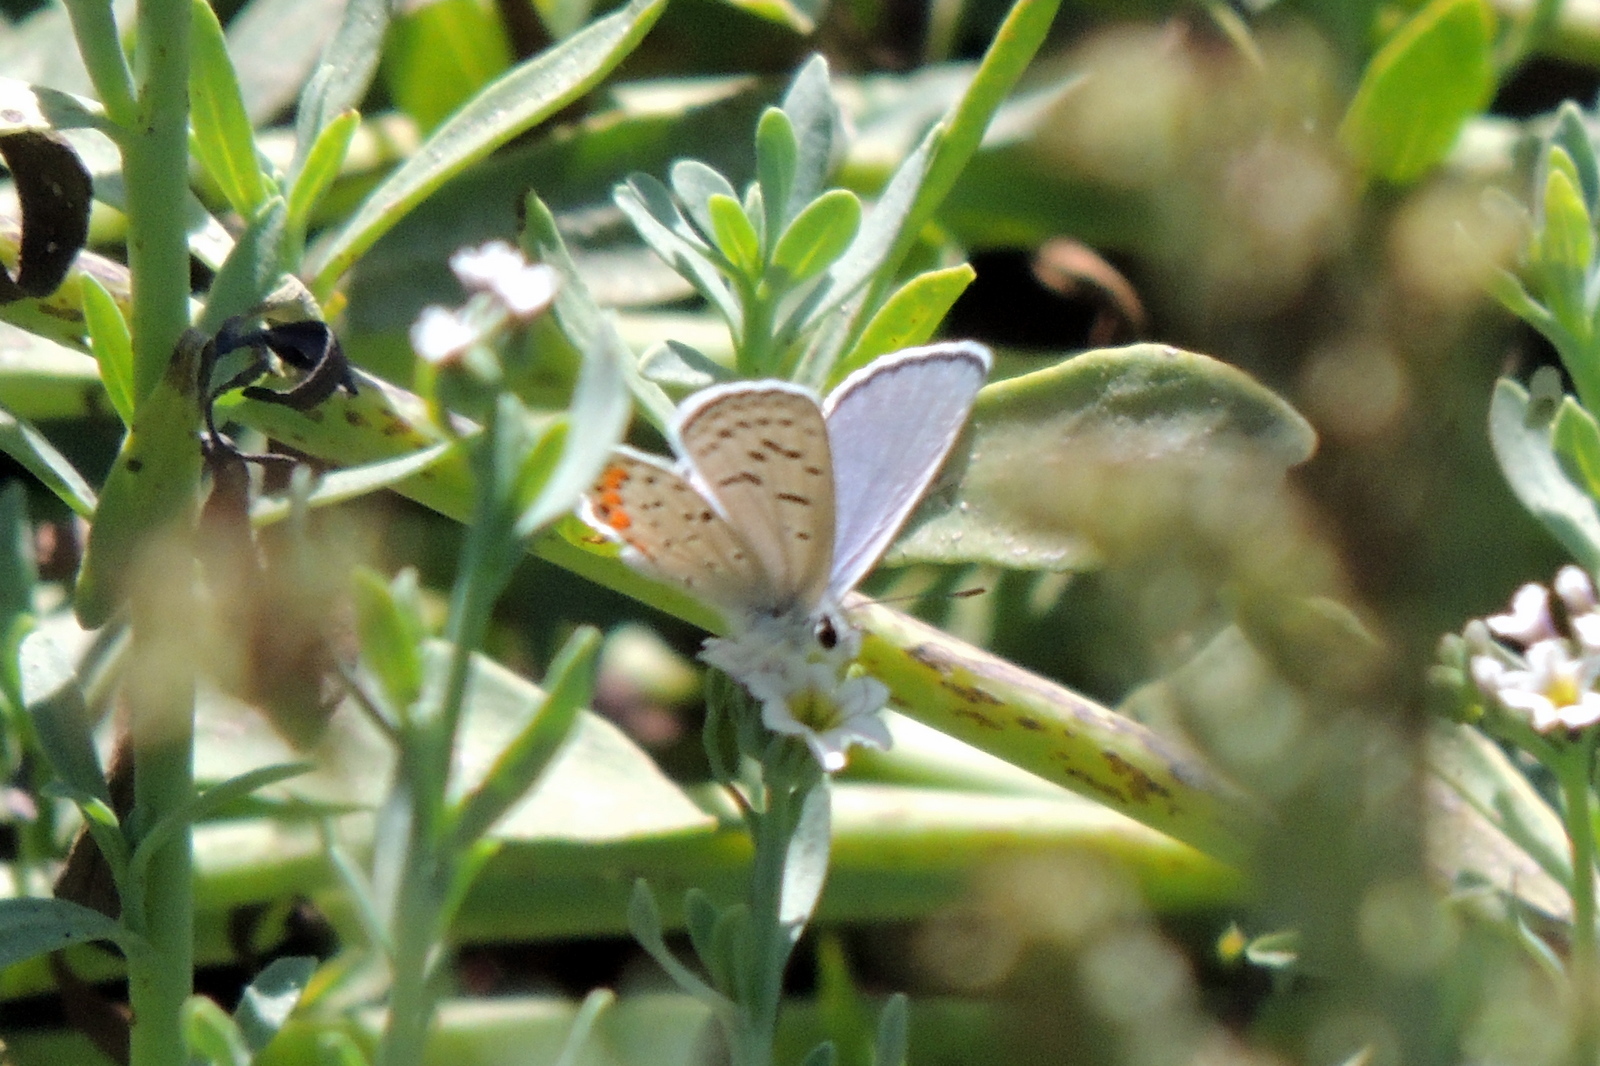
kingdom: Animalia
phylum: Arthropoda
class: Insecta
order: Lepidoptera
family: Lycaenidae
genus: Icaricia
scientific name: Icaricia acmon
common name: Acmon blue
